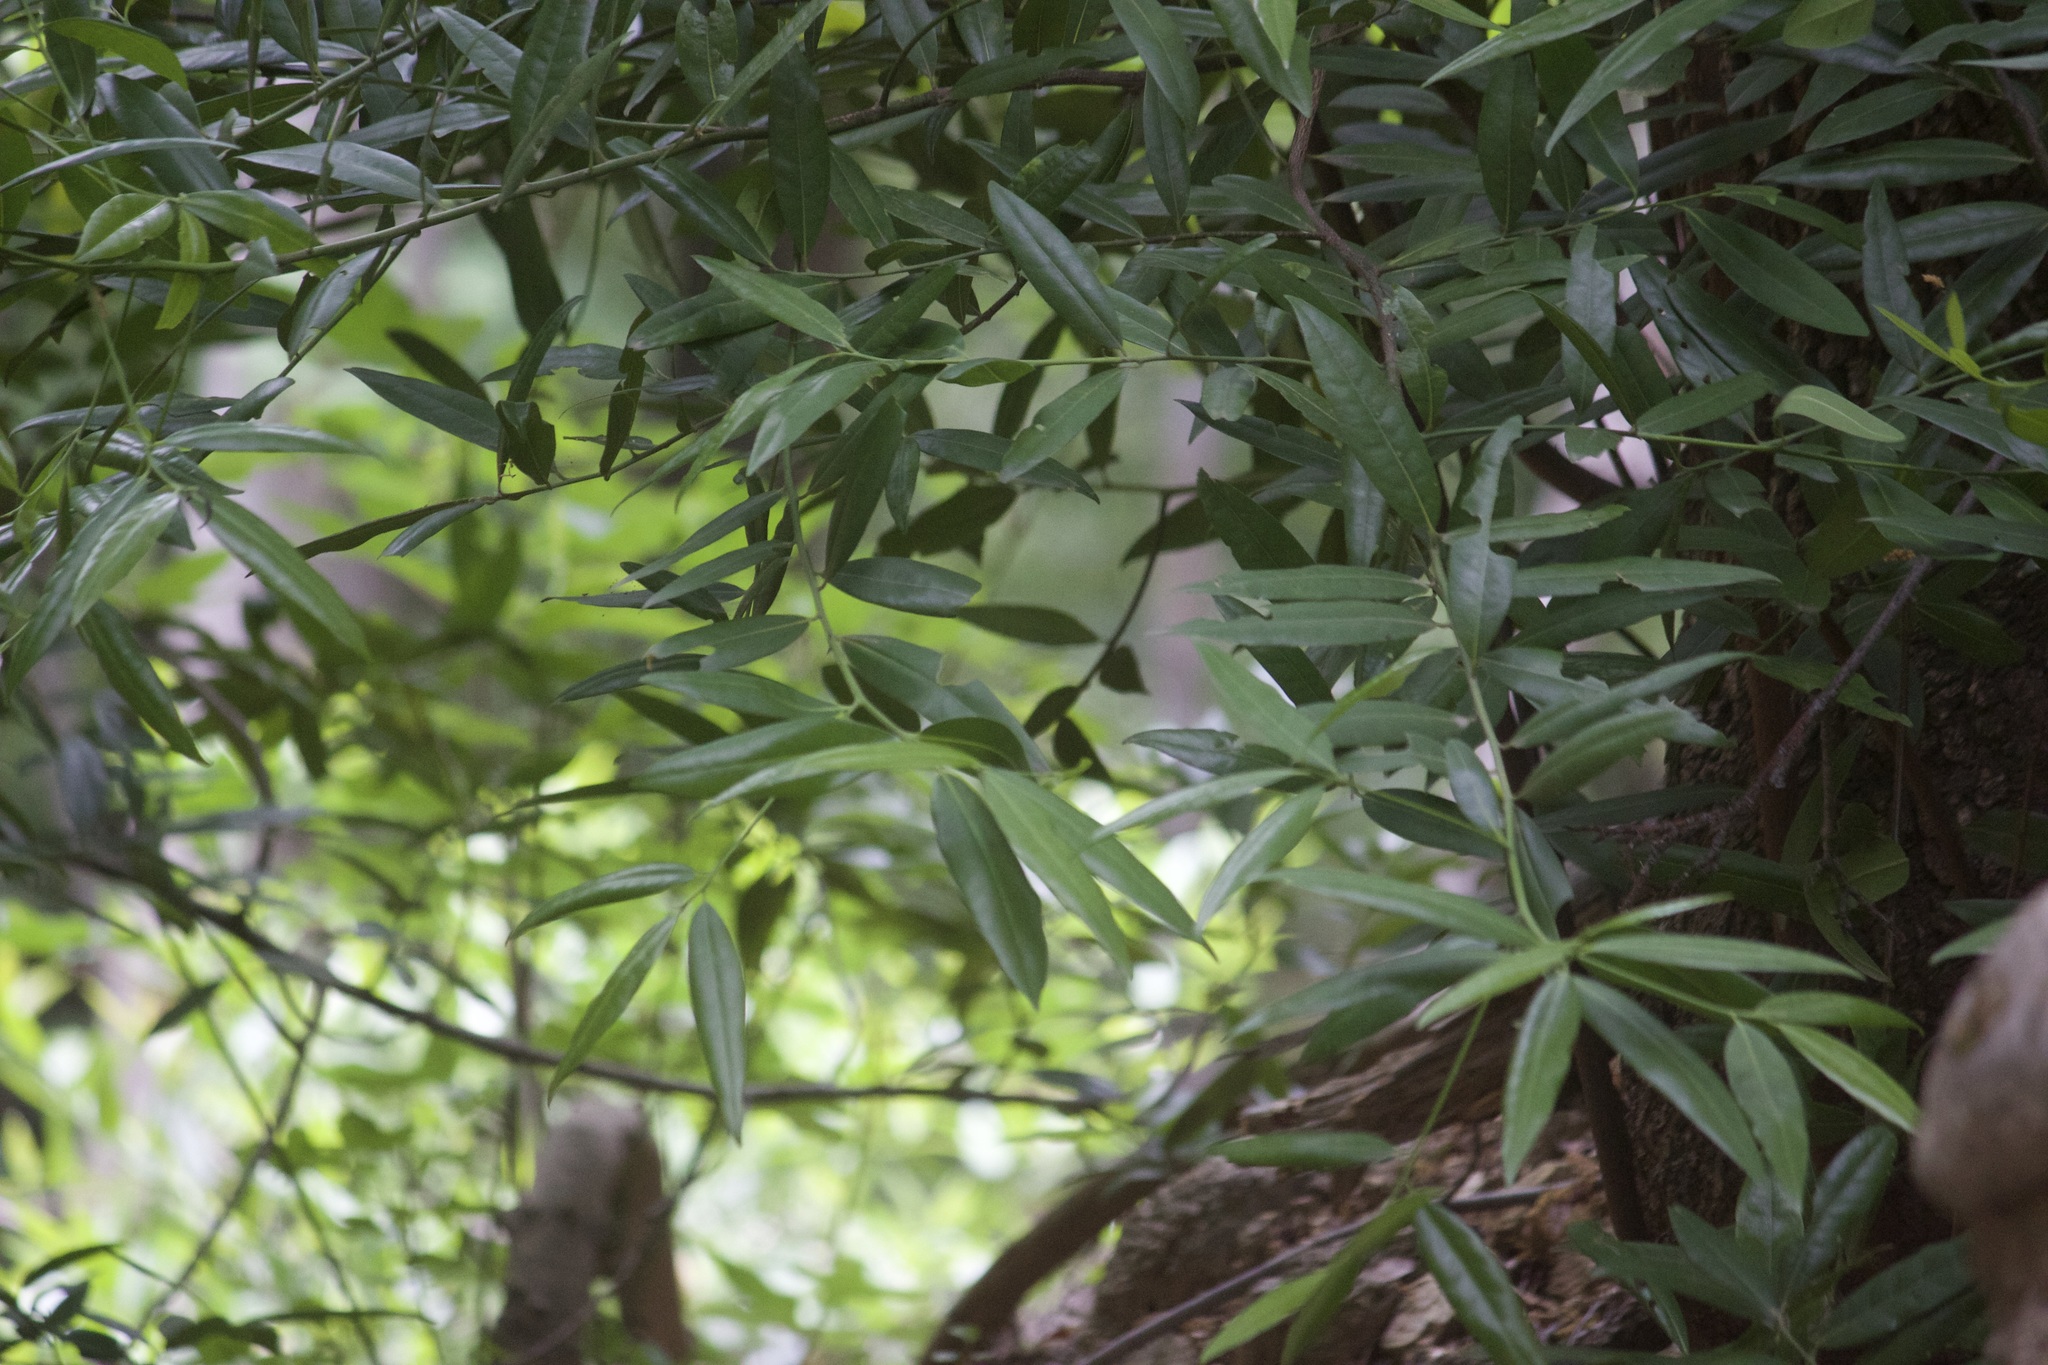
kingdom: Plantae
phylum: Tracheophyta
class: Magnoliopsida
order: Laurales
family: Lauraceae
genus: Umbellularia
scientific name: Umbellularia californica
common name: California bay
